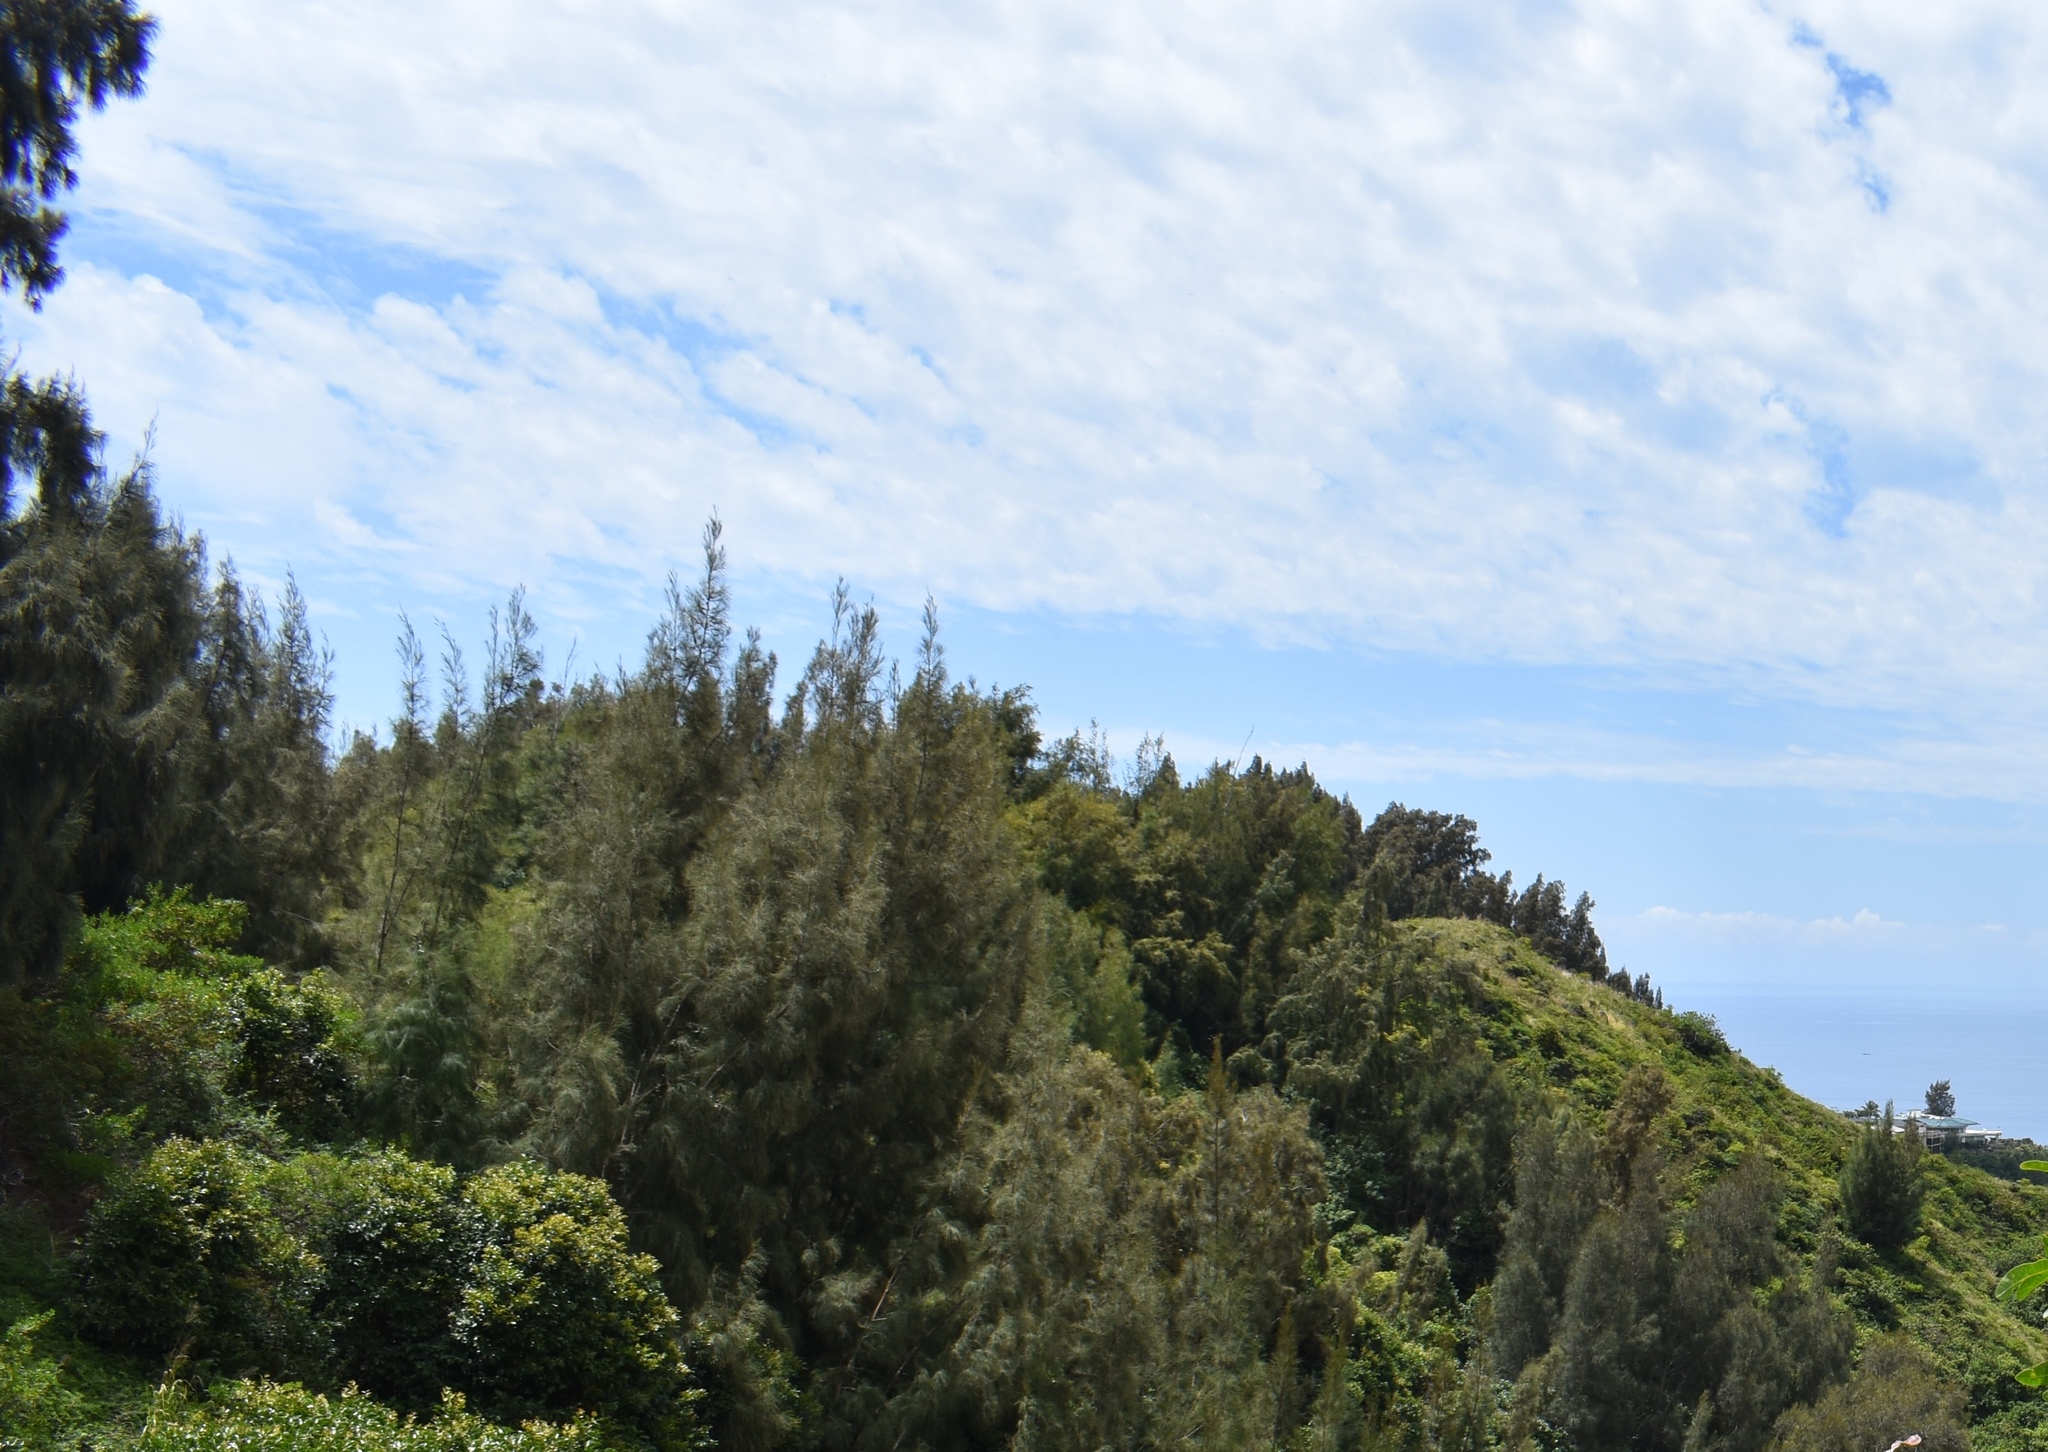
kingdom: Plantae
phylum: Tracheophyta
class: Magnoliopsida
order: Fagales
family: Casuarinaceae
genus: Casuarina
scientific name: Casuarina equisetifolia
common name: Beach sheoak
